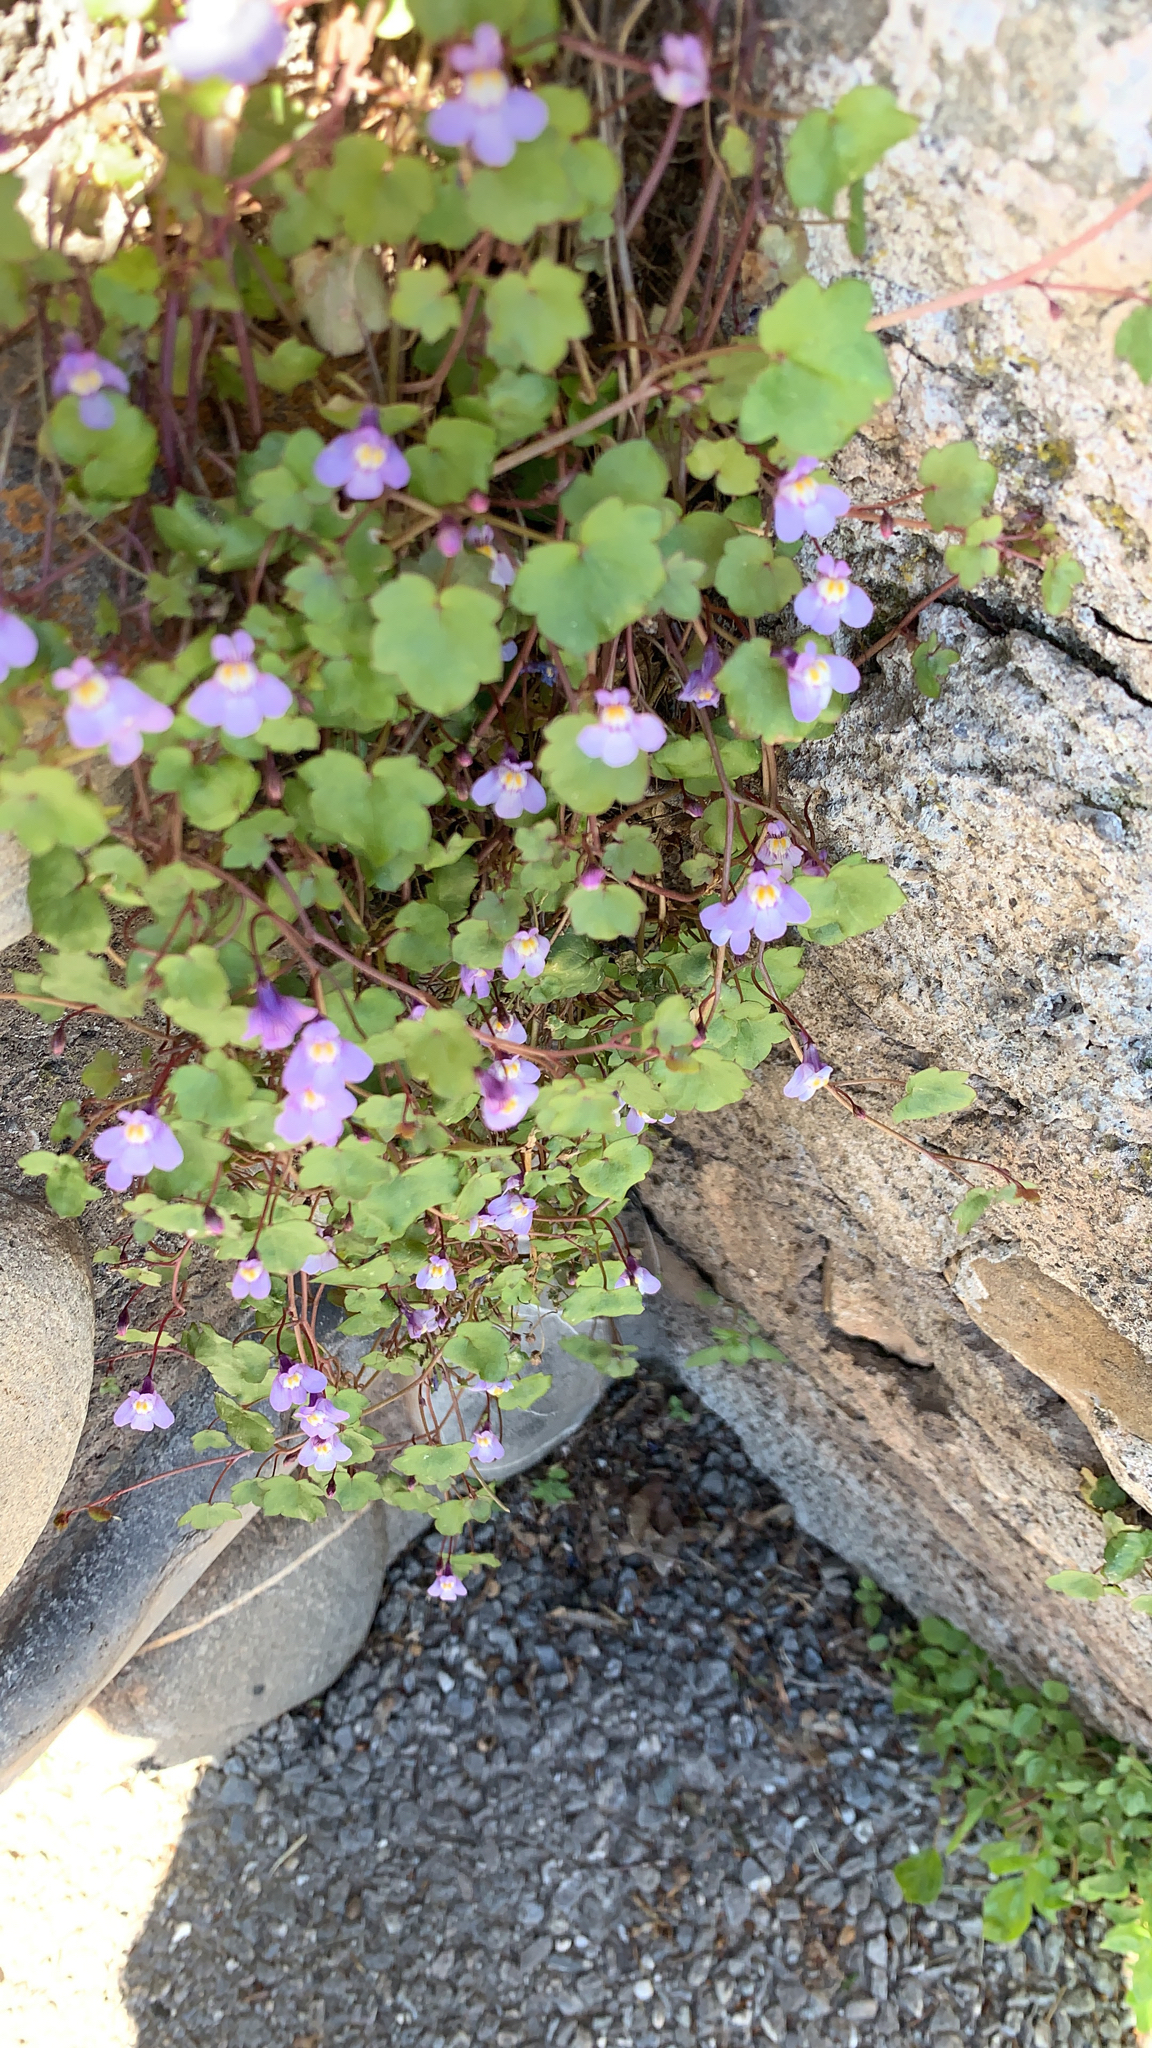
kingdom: Plantae
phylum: Tracheophyta
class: Magnoliopsida
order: Lamiales
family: Plantaginaceae
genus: Cymbalaria
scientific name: Cymbalaria muralis
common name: Ivy-leaved toadflax
